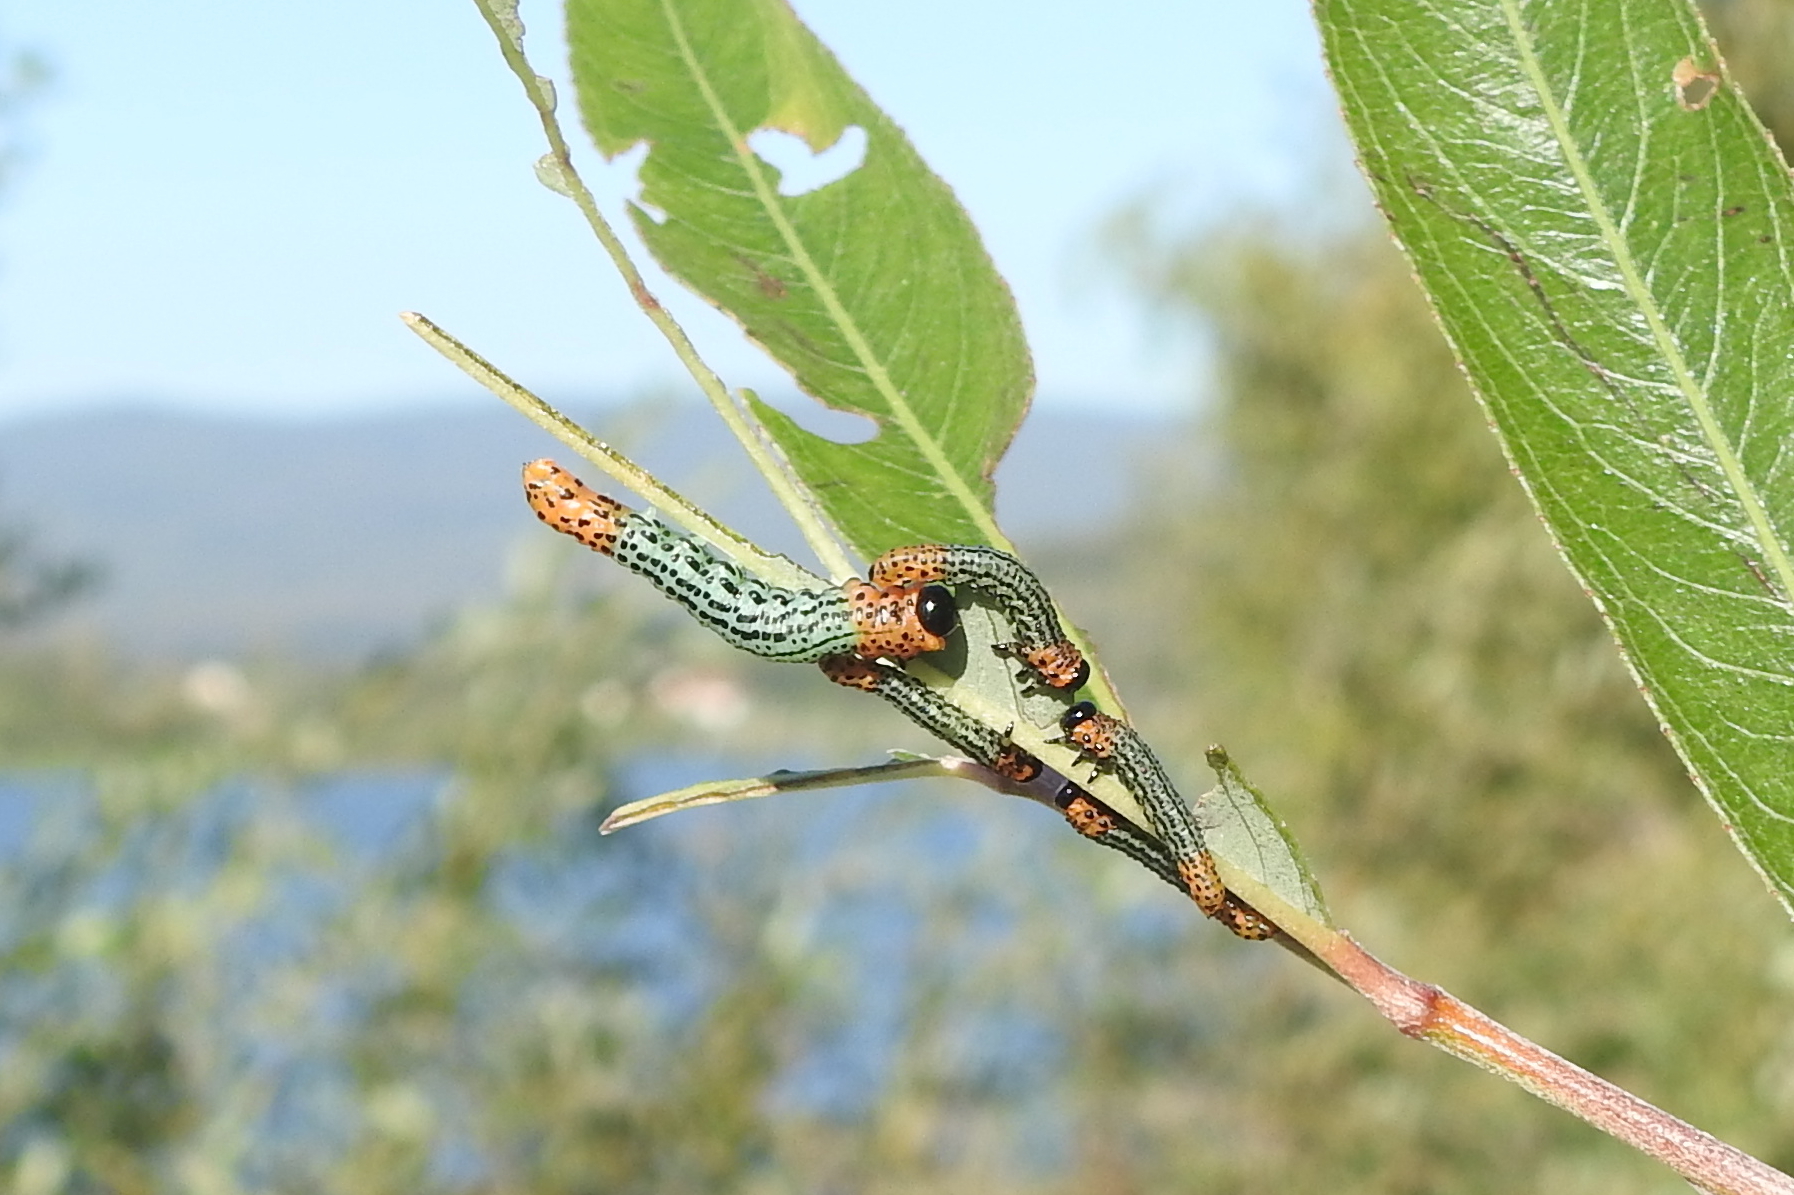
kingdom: Animalia
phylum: Arthropoda
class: Insecta
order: Hymenoptera
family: Tenthredinidae
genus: Nematus
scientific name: Nematus salicis
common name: Willow sawfly
